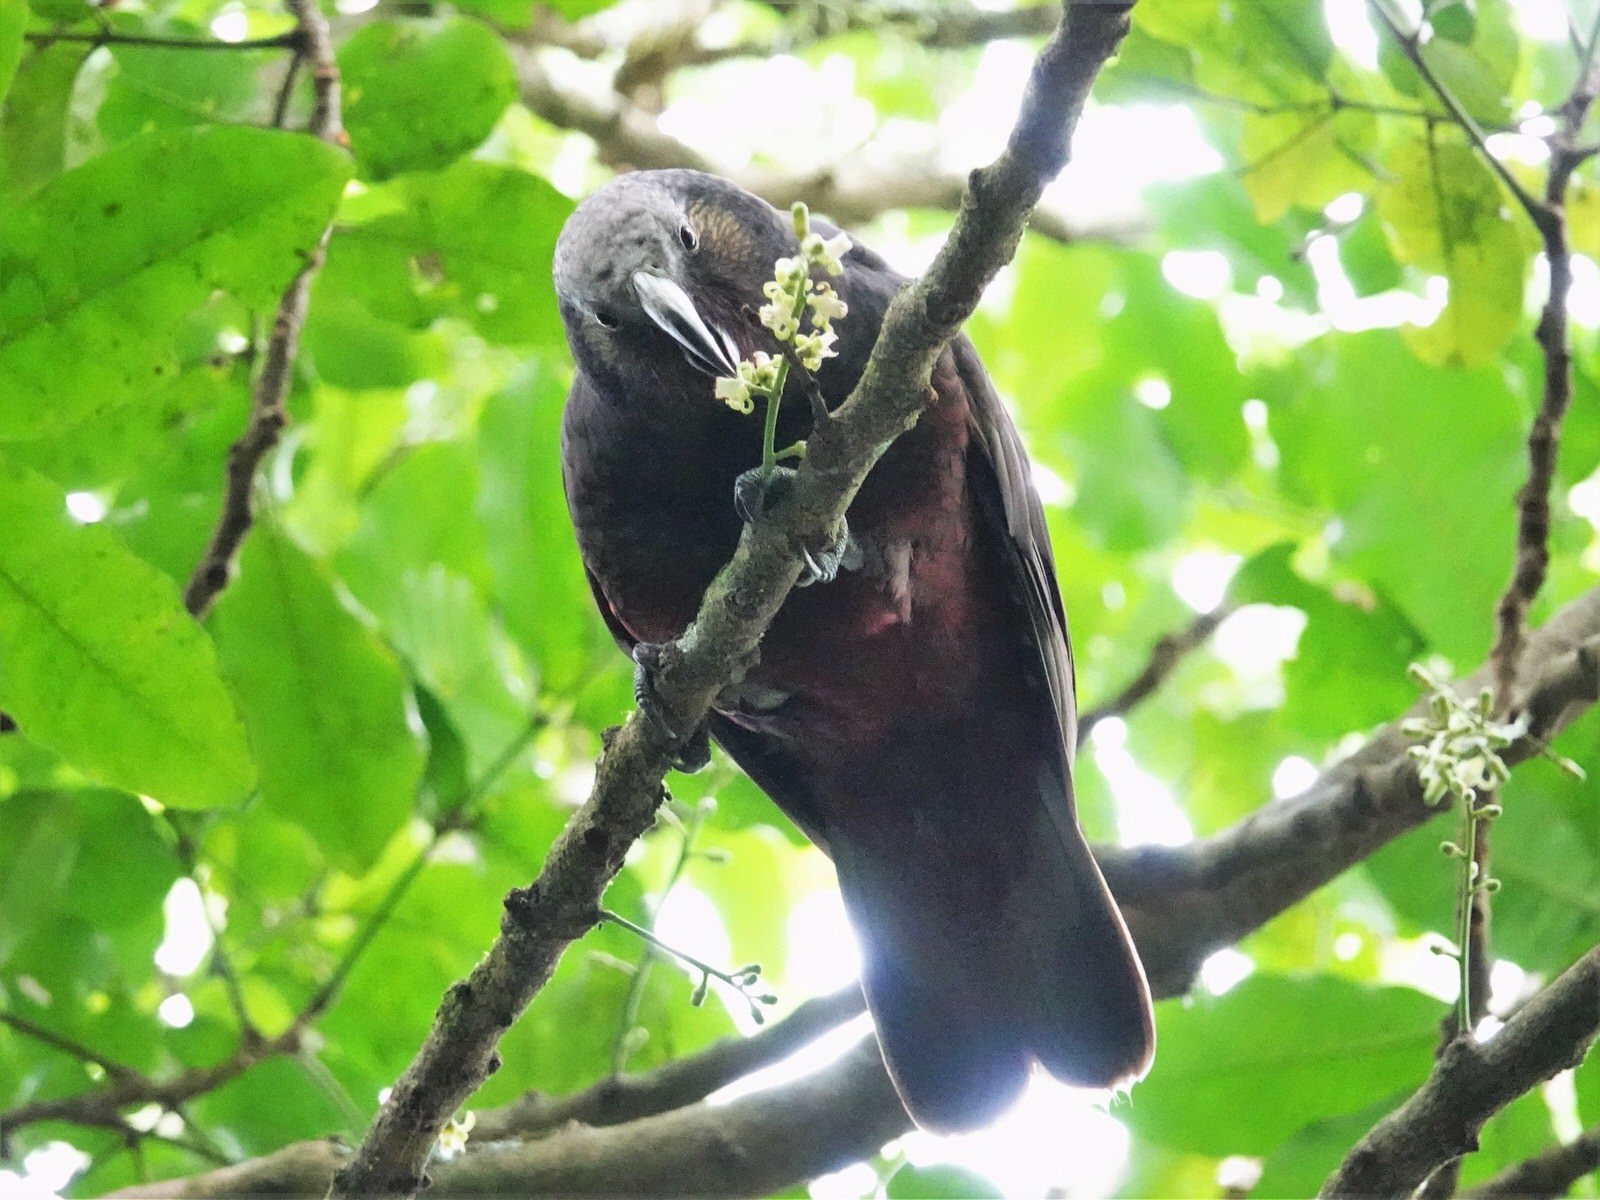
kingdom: Animalia
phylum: Chordata
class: Aves
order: Psittaciformes
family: Psittacidae
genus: Nestor
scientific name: Nestor meridionalis
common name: New zealand kaka
